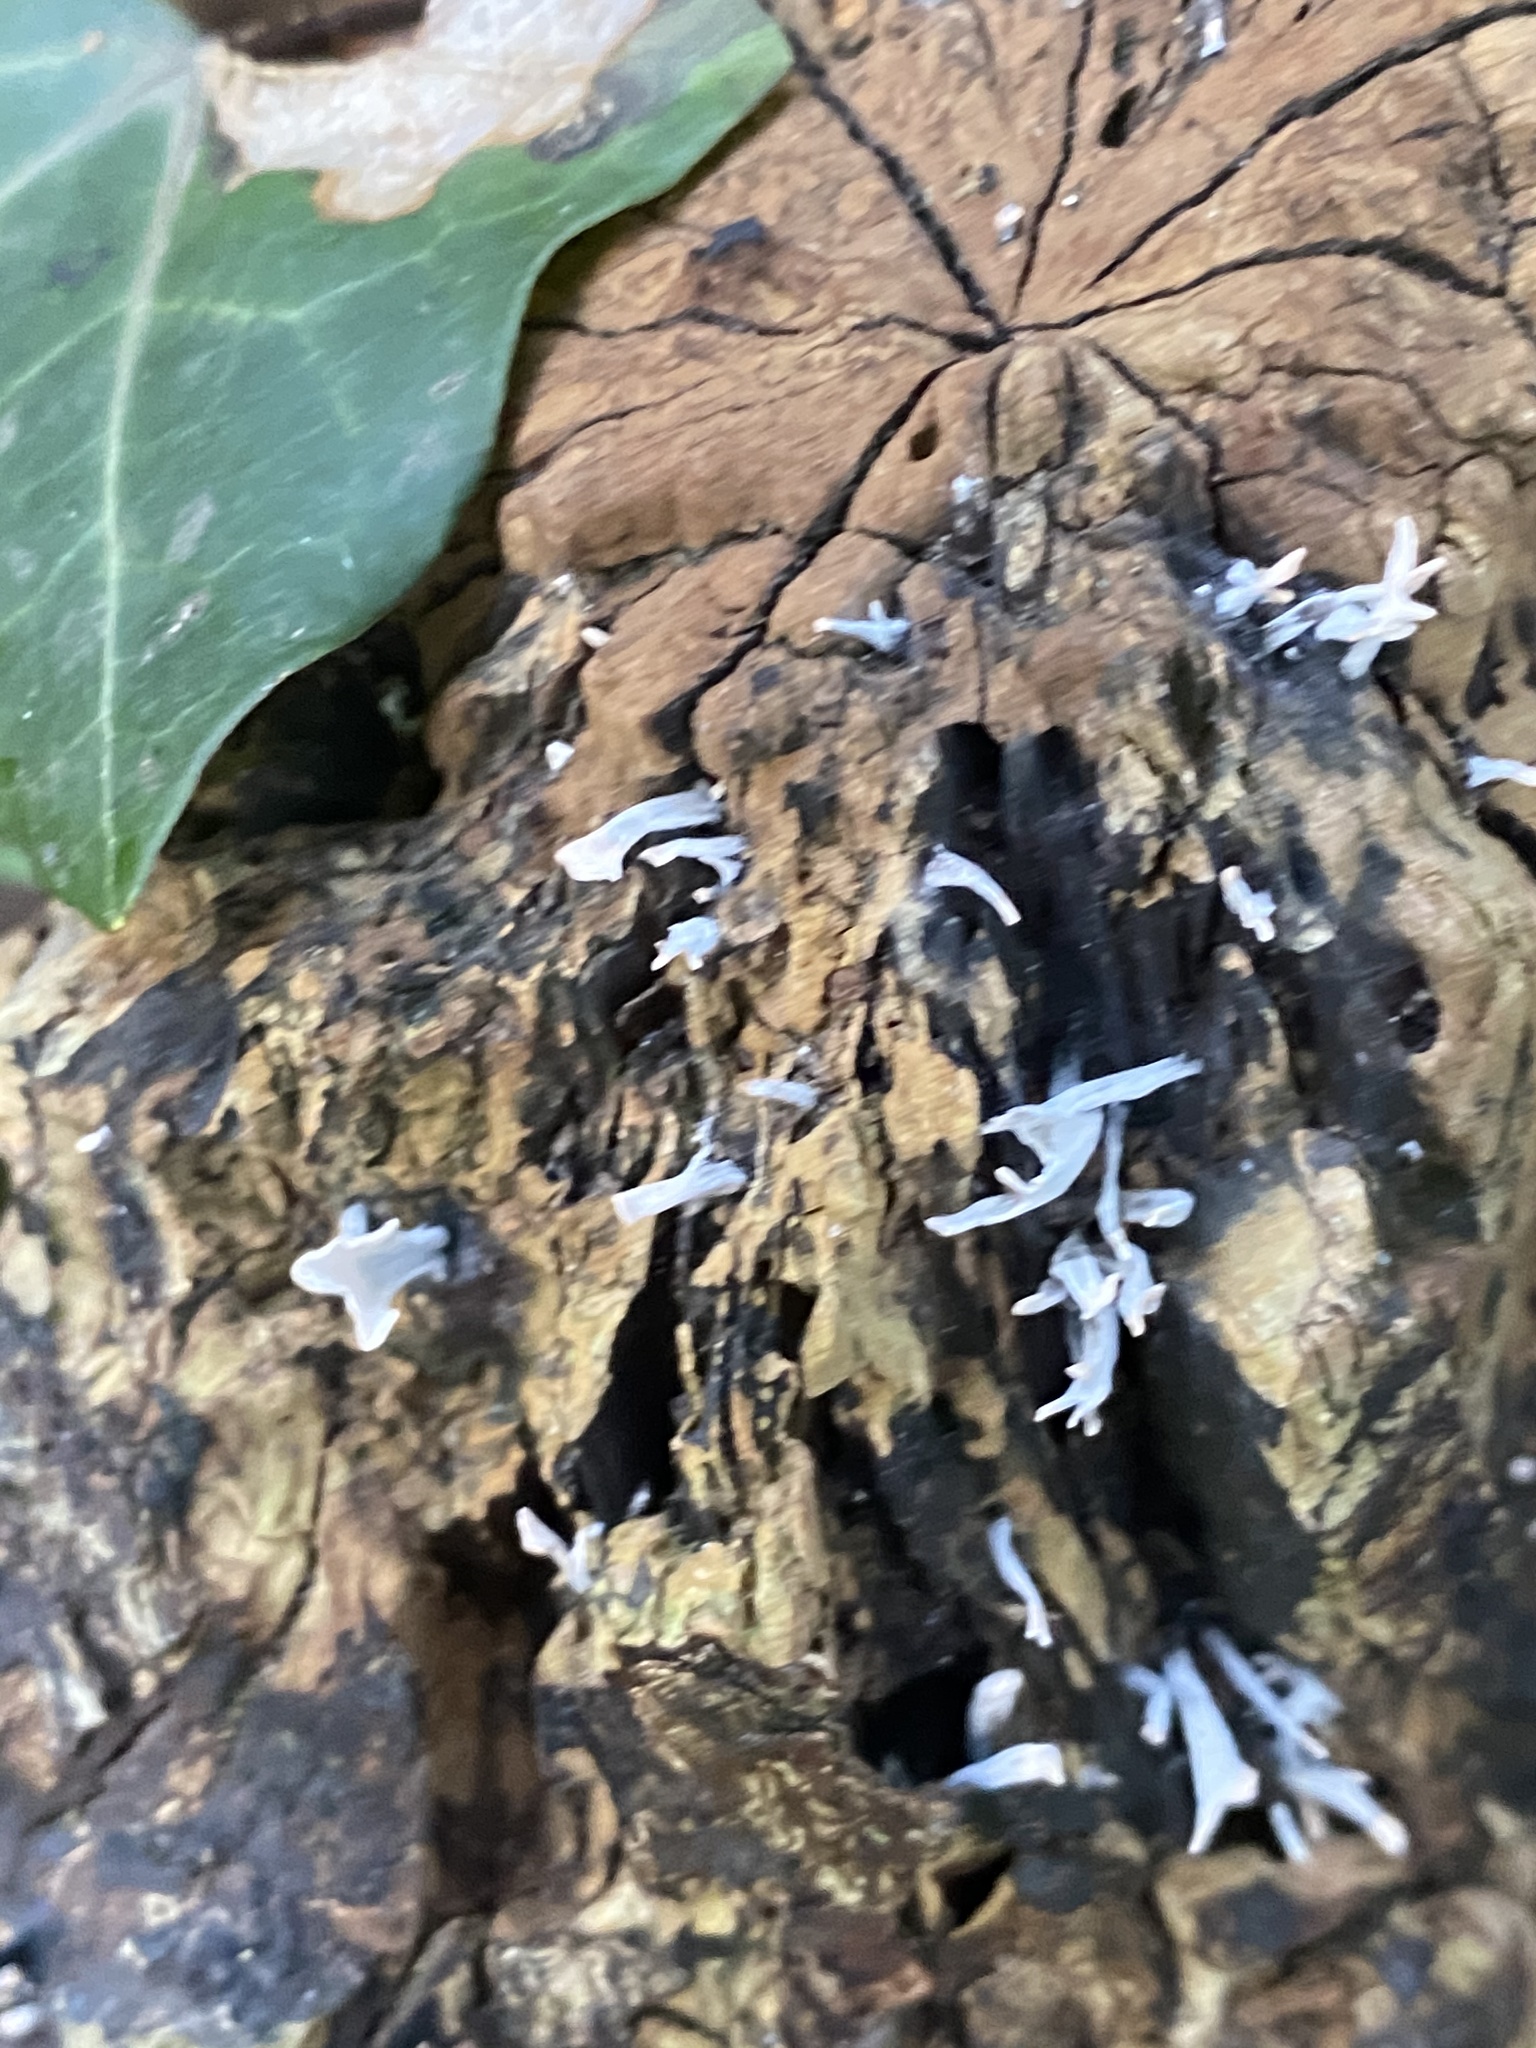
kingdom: Fungi
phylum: Ascomycota
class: Sordariomycetes
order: Xylariales
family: Xylariaceae
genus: Xylaria
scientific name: Xylaria hypoxylon
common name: Candle-snuff fungus
